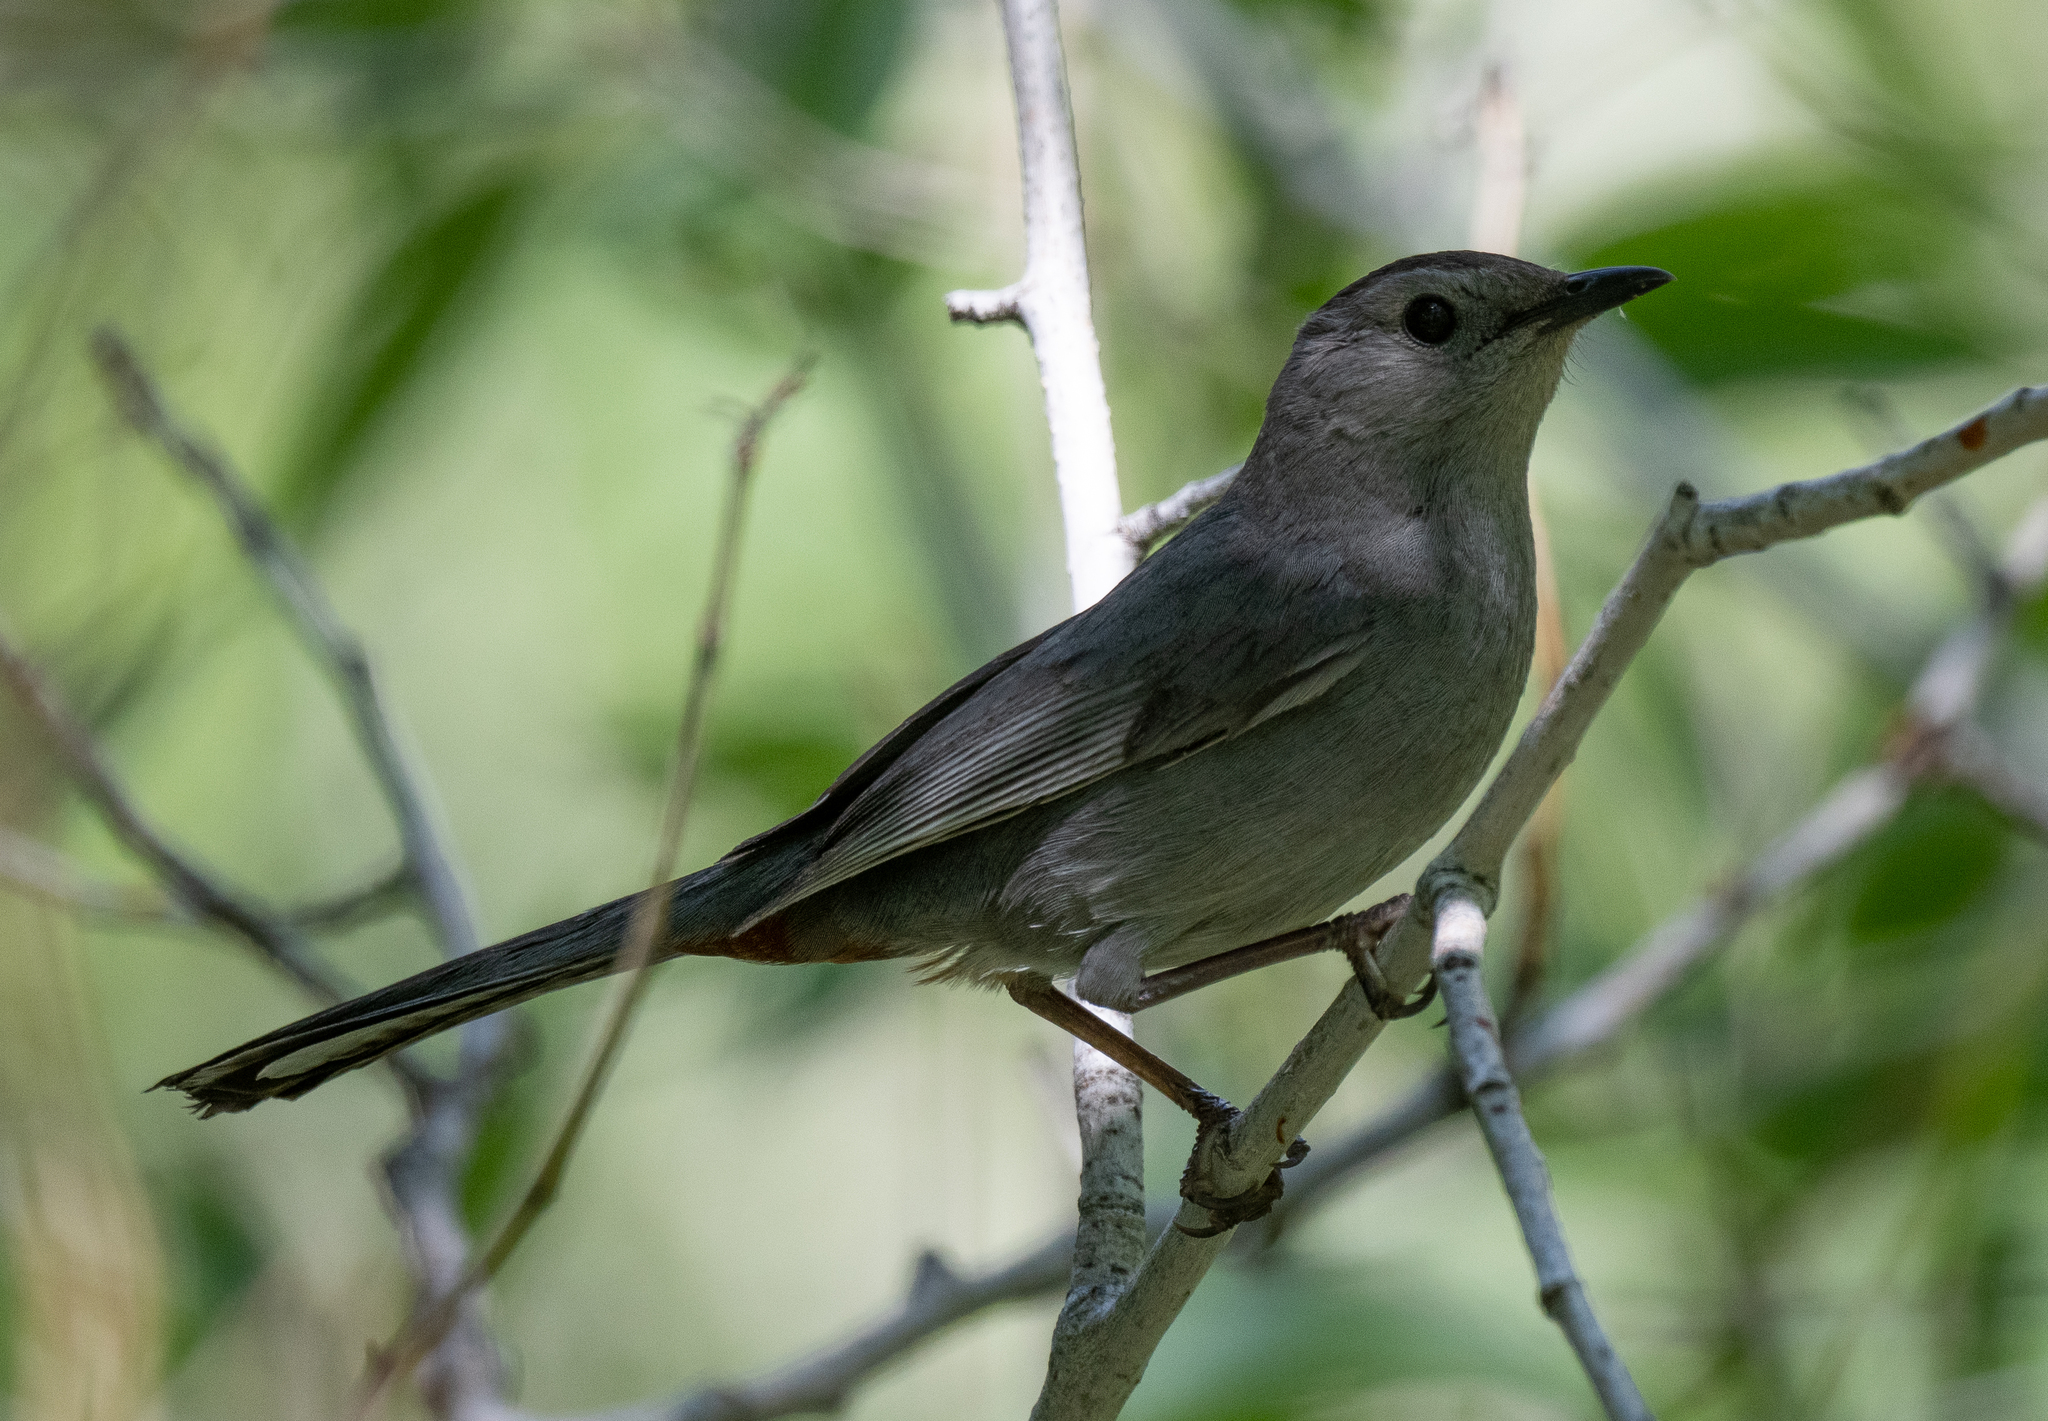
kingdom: Animalia
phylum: Chordata
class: Aves
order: Passeriformes
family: Mimidae
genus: Dumetella
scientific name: Dumetella carolinensis
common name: Gray catbird
